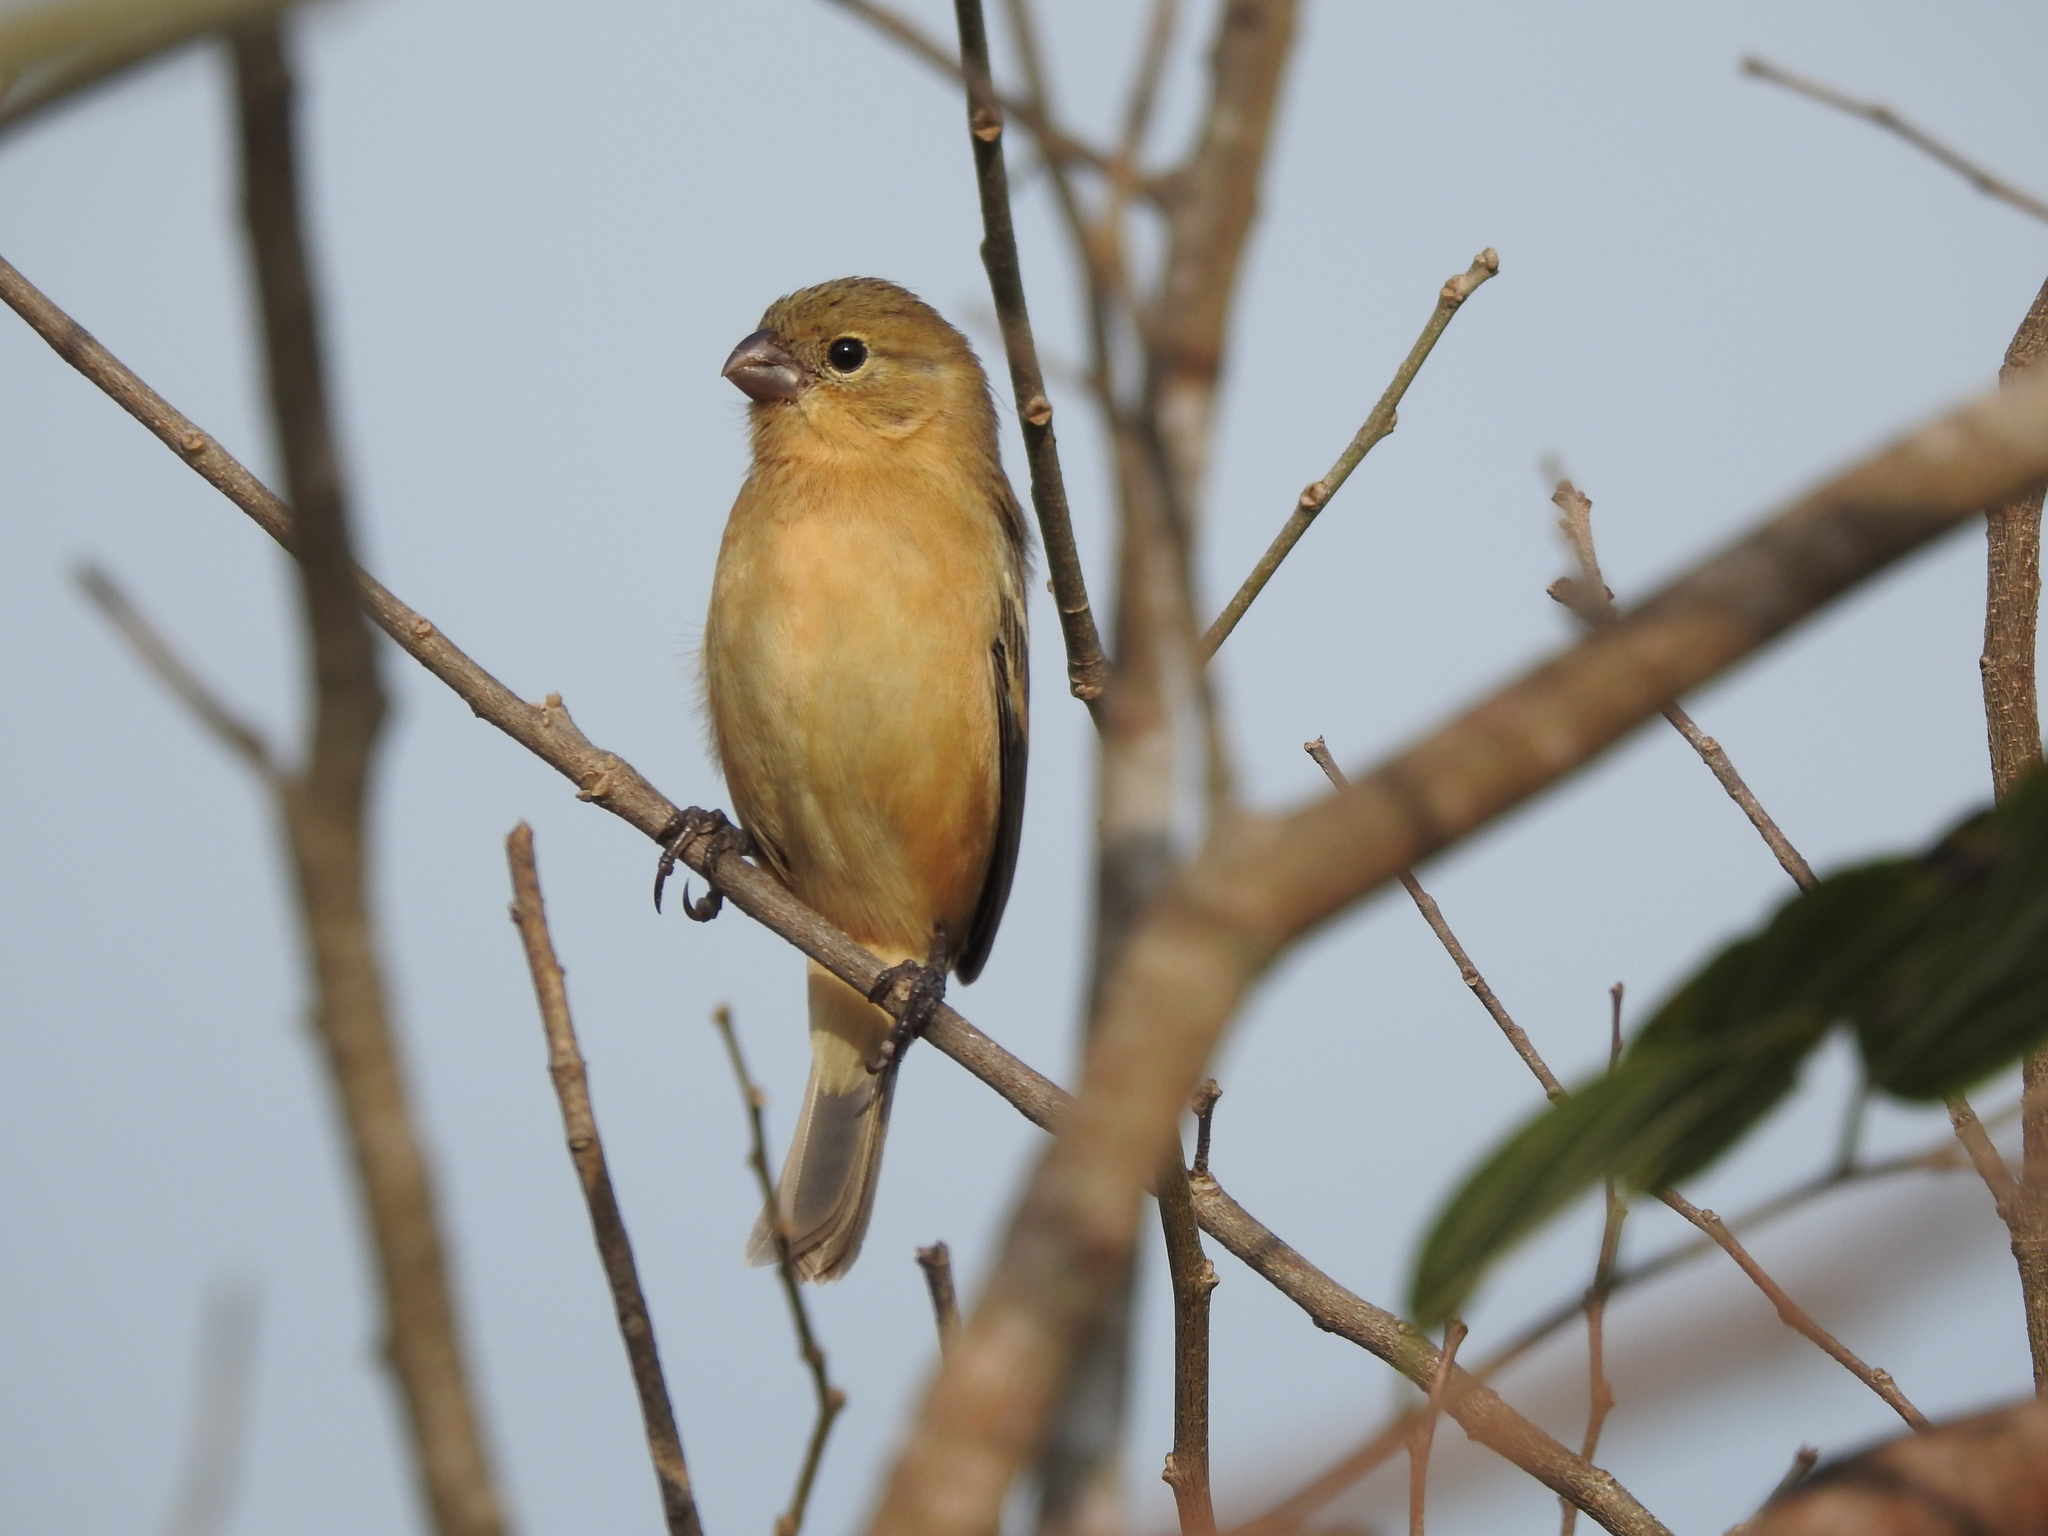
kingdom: Animalia
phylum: Chordata
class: Aves
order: Passeriformes
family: Thraupidae
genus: Sporophila
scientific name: Sporophila morelleti
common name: Morelet's seedeater
